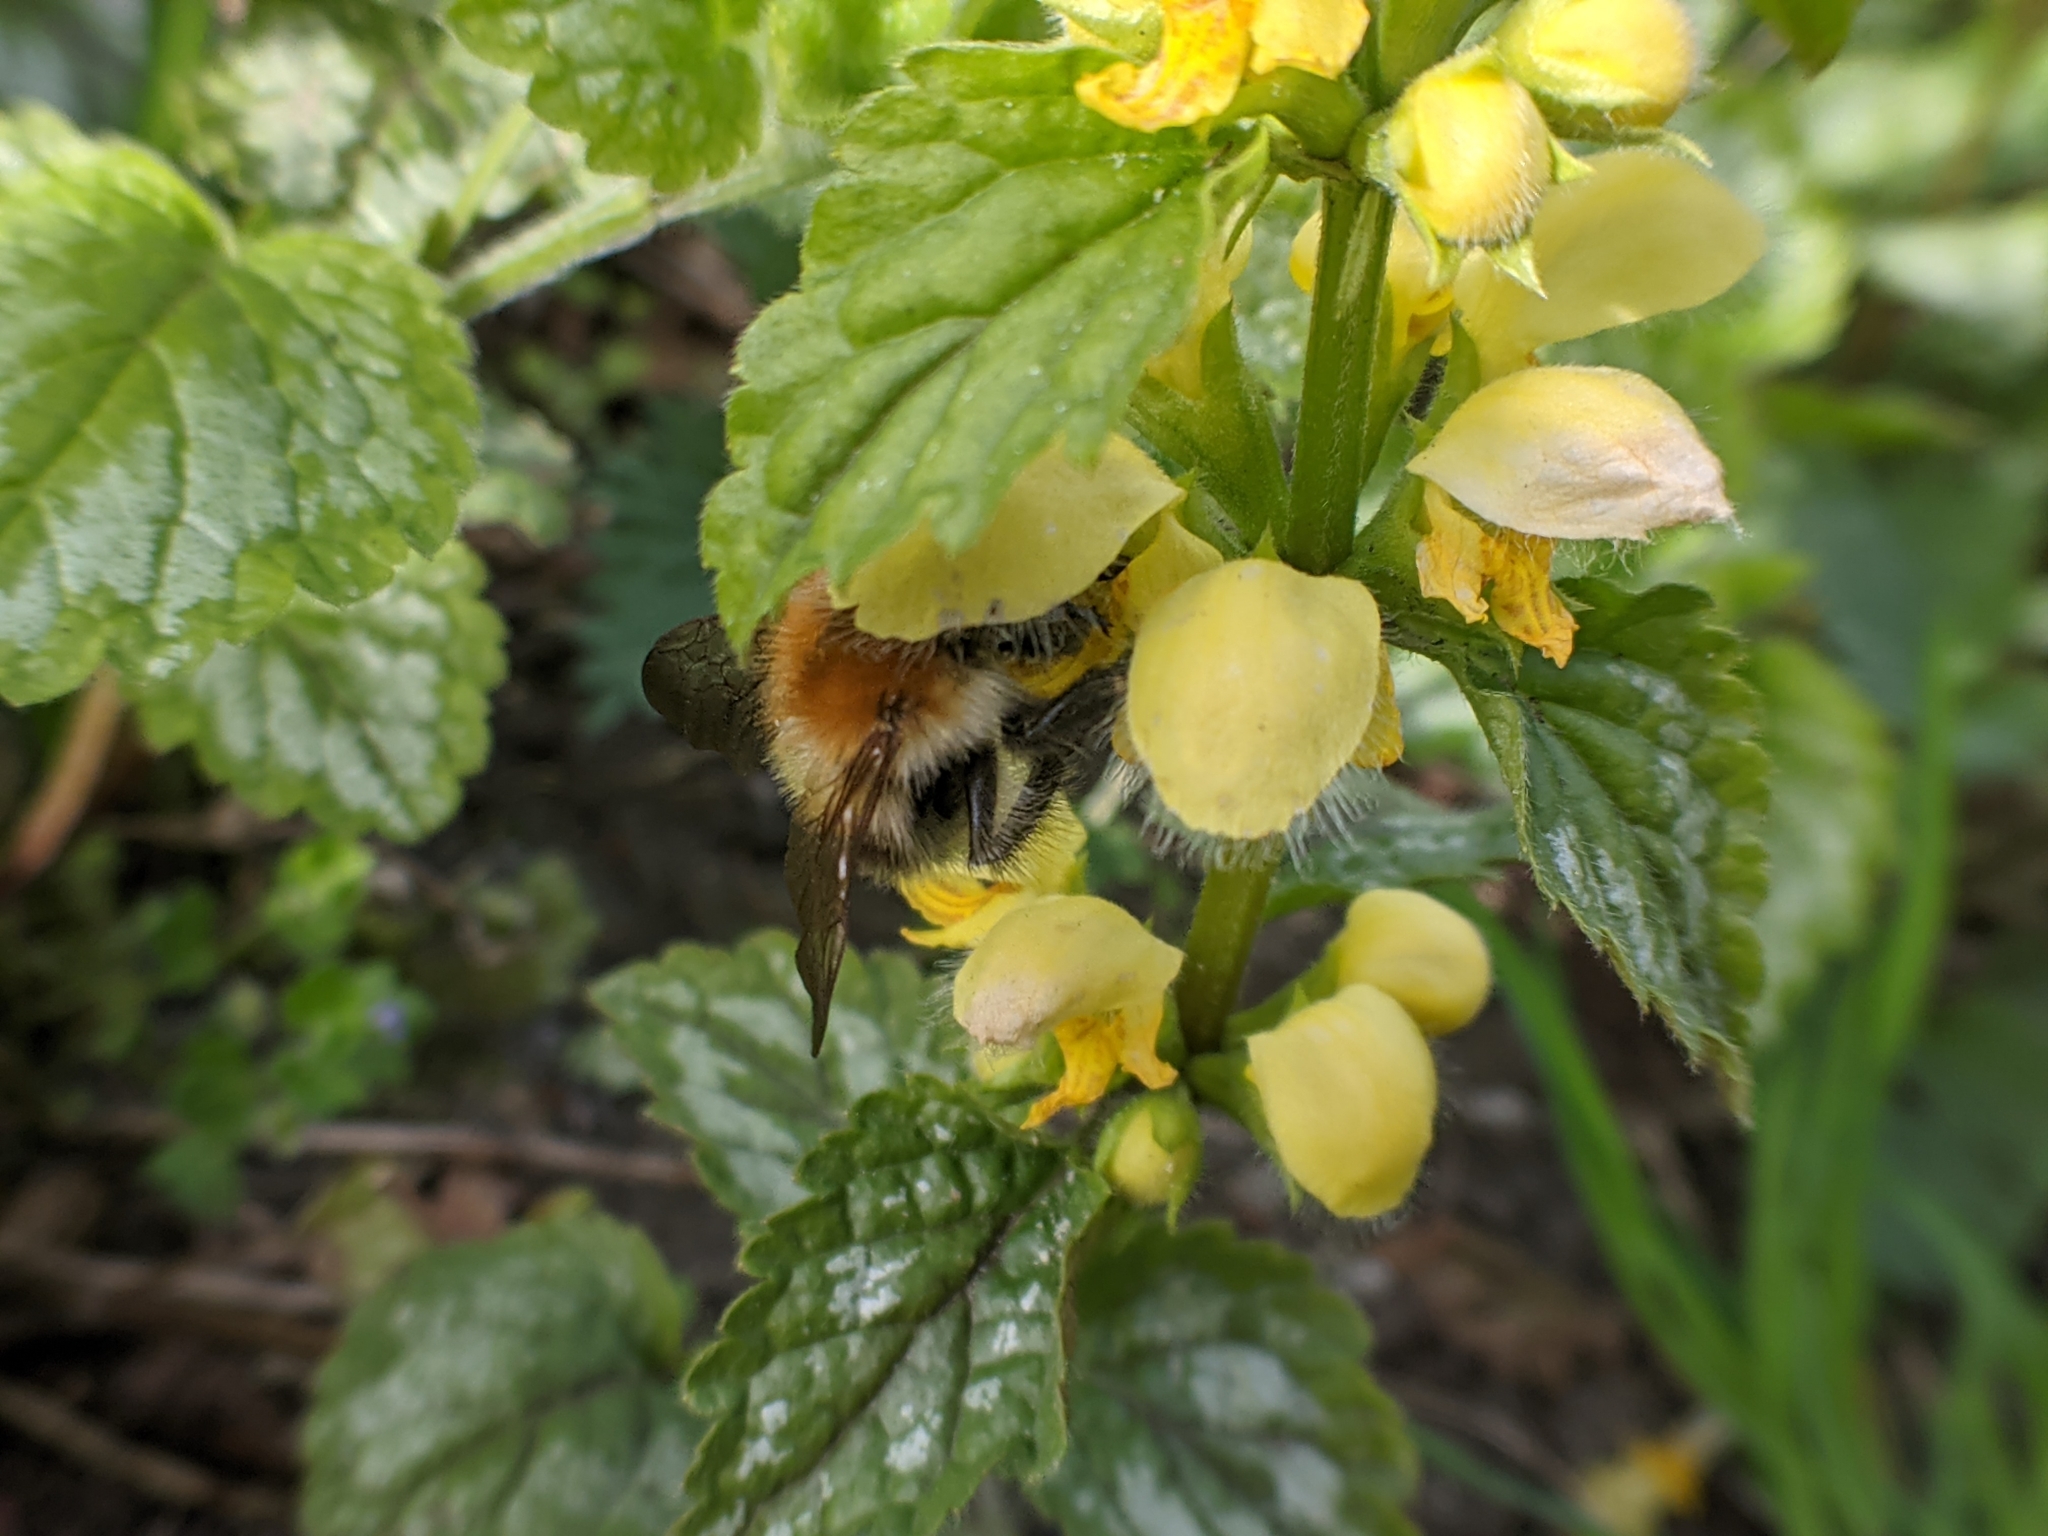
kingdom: Animalia
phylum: Arthropoda
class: Insecta
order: Hymenoptera
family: Apidae
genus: Bombus
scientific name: Bombus pascuorum
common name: Common carder bee
